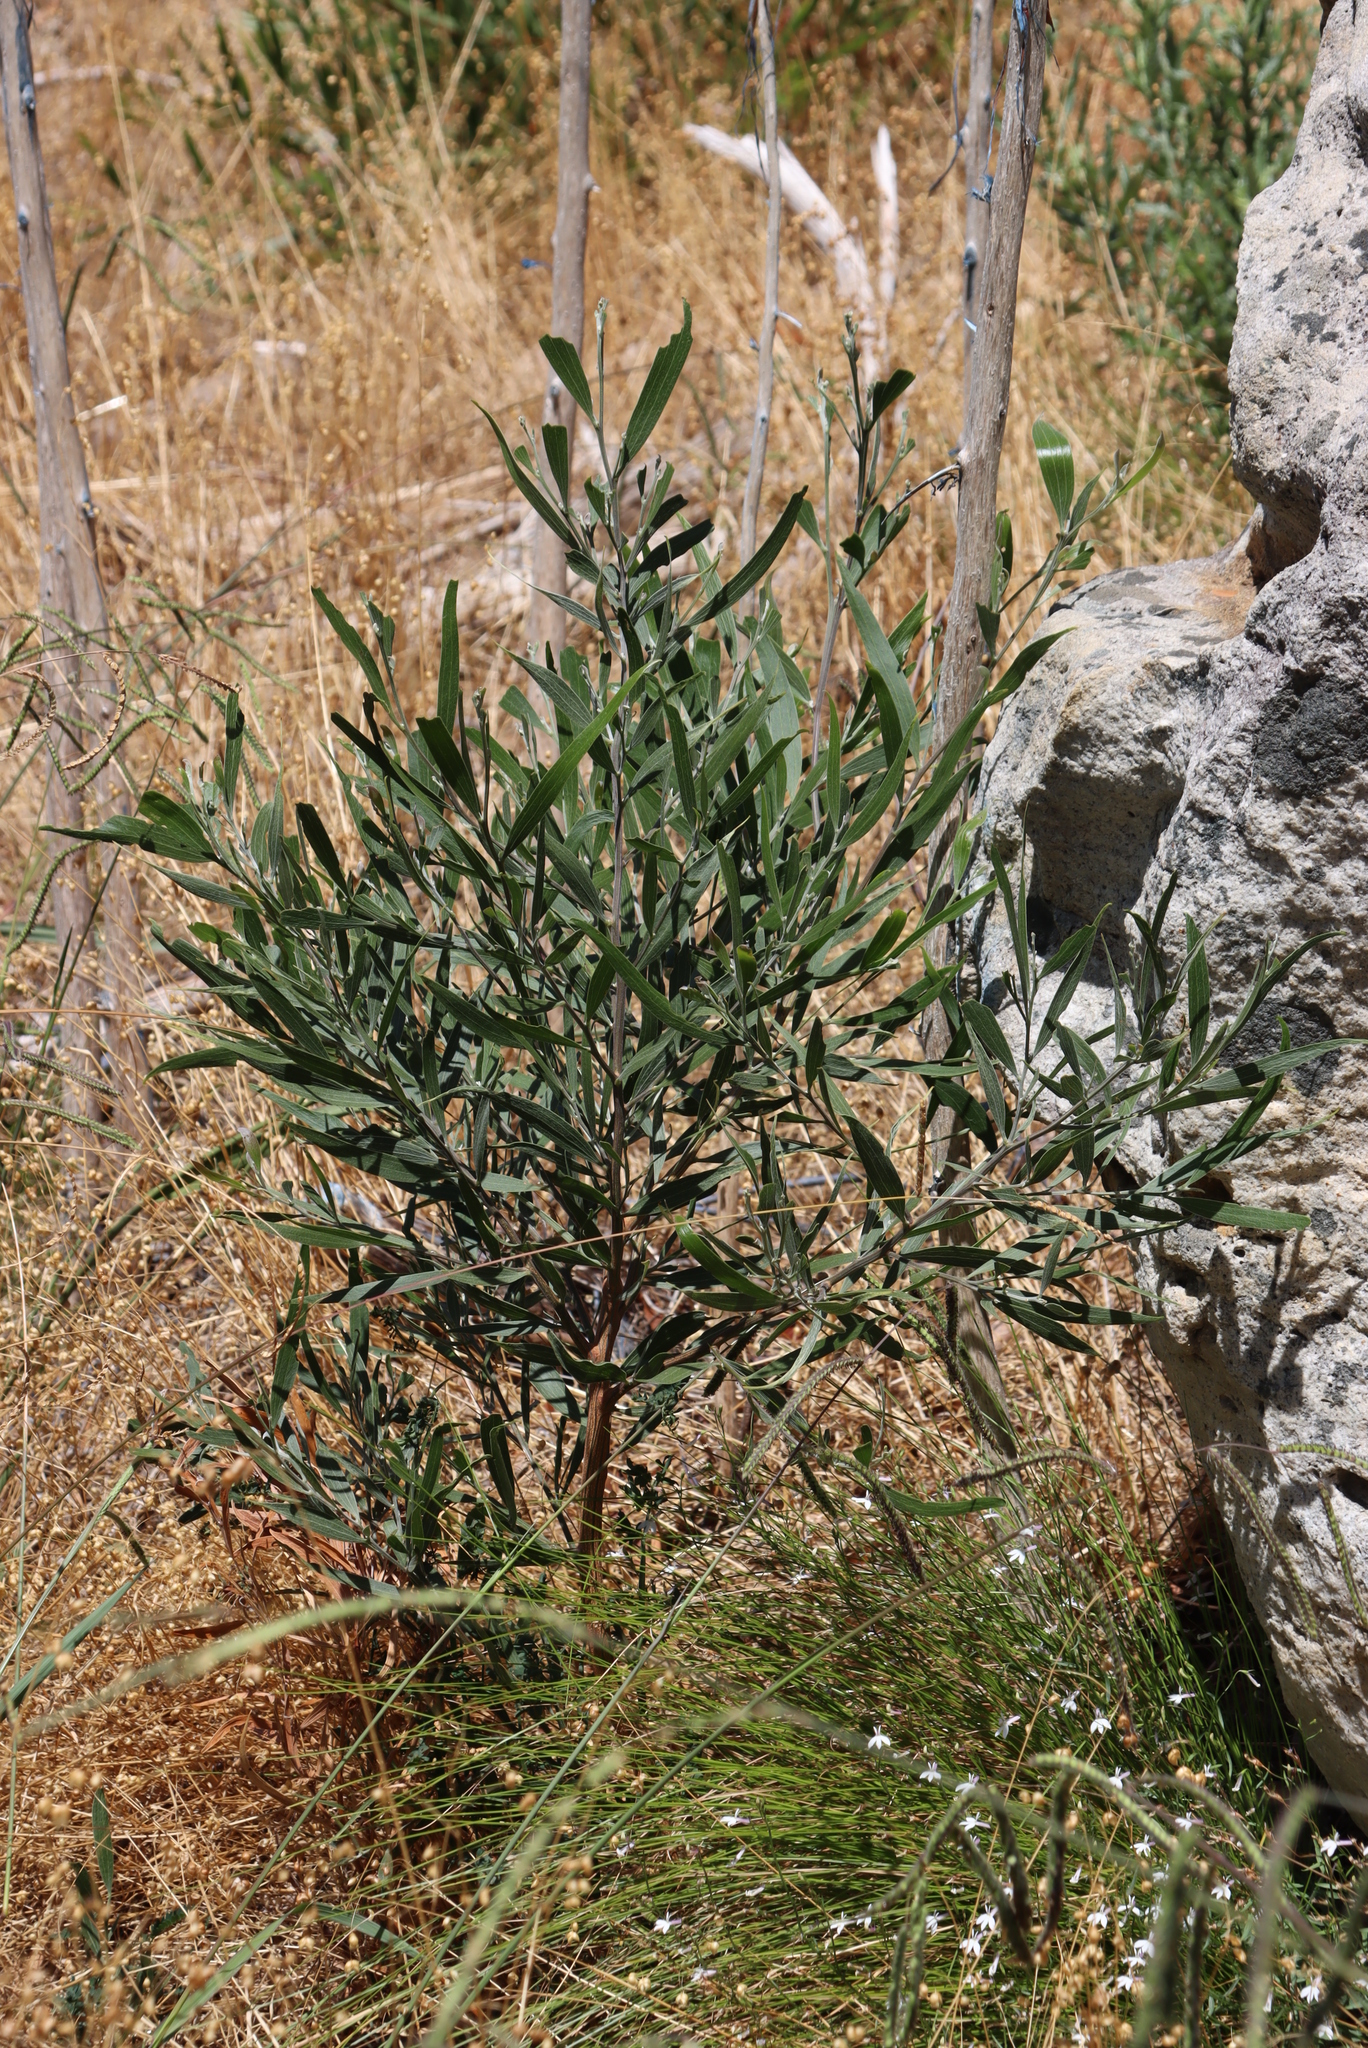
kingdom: Plantae
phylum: Tracheophyta
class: Magnoliopsida
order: Fabales
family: Fabaceae
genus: Acacia
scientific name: Acacia melanoxylon
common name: Blackwood
